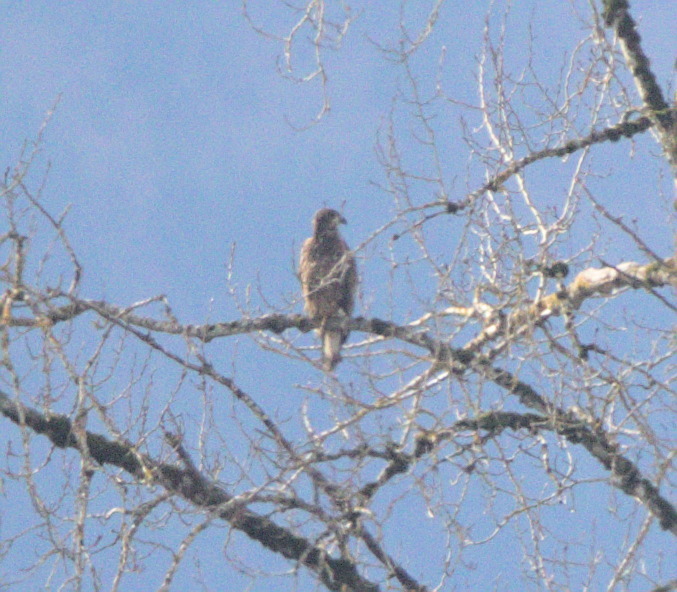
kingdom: Animalia
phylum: Chordata
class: Aves
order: Accipitriformes
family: Accipitridae
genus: Haliaeetus
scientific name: Haliaeetus leucocephalus
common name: Bald eagle
